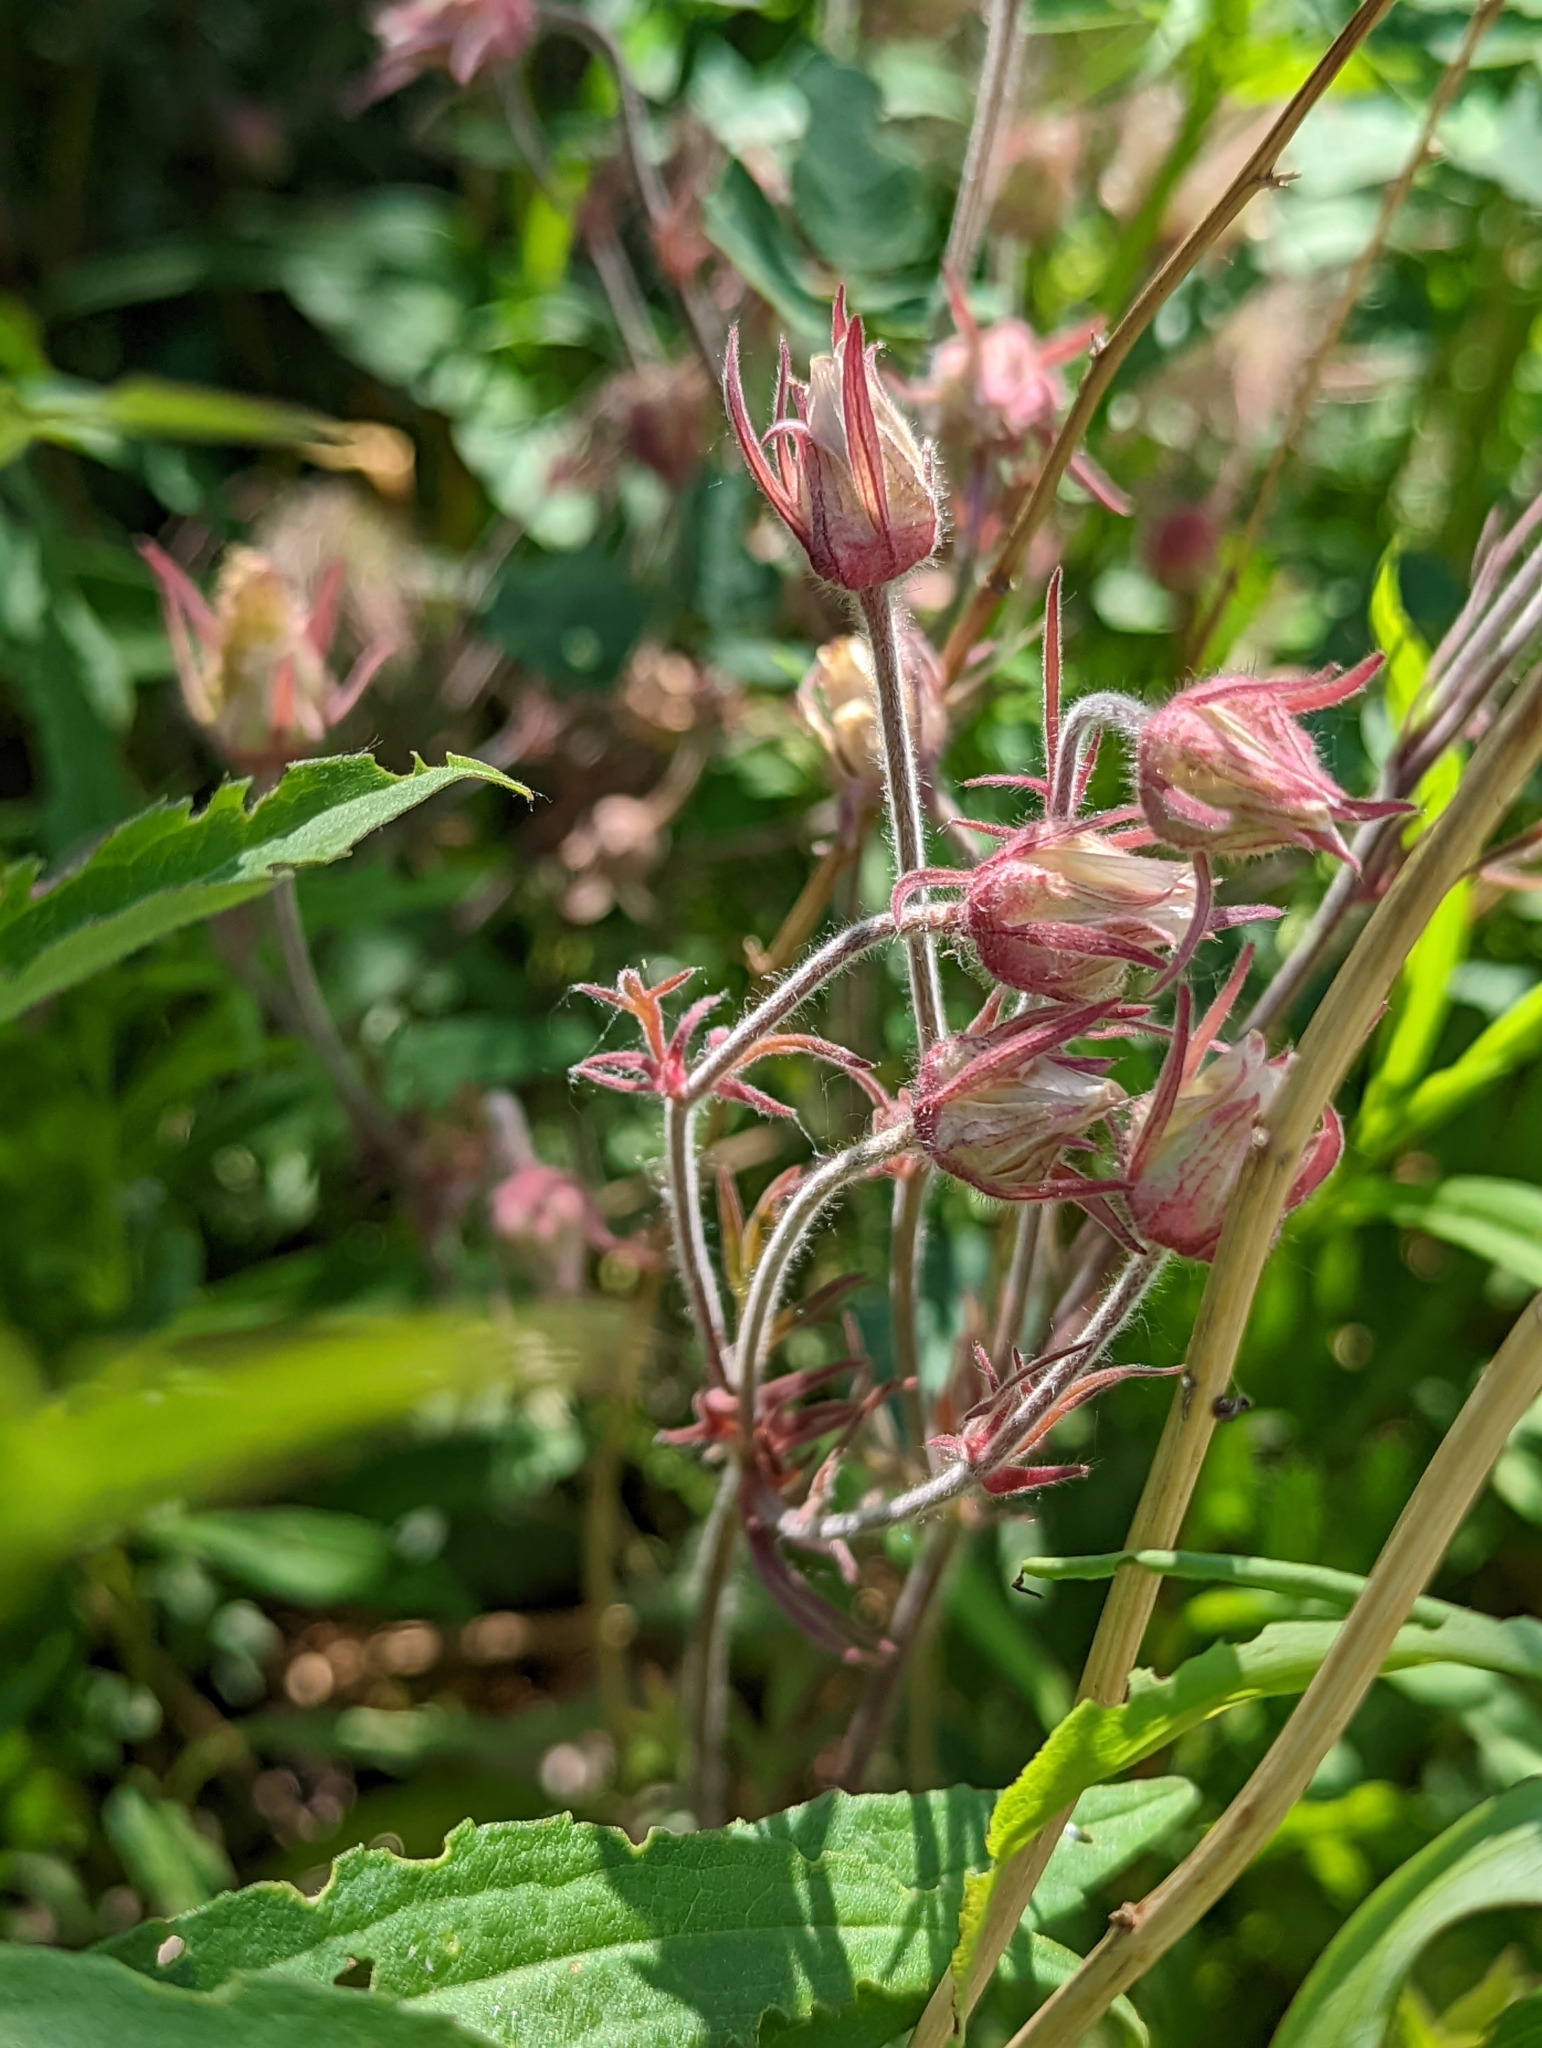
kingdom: Plantae
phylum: Tracheophyta
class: Magnoliopsida
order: Rosales
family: Rosaceae
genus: Geum
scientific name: Geum triflorum
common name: Old man's whiskers
